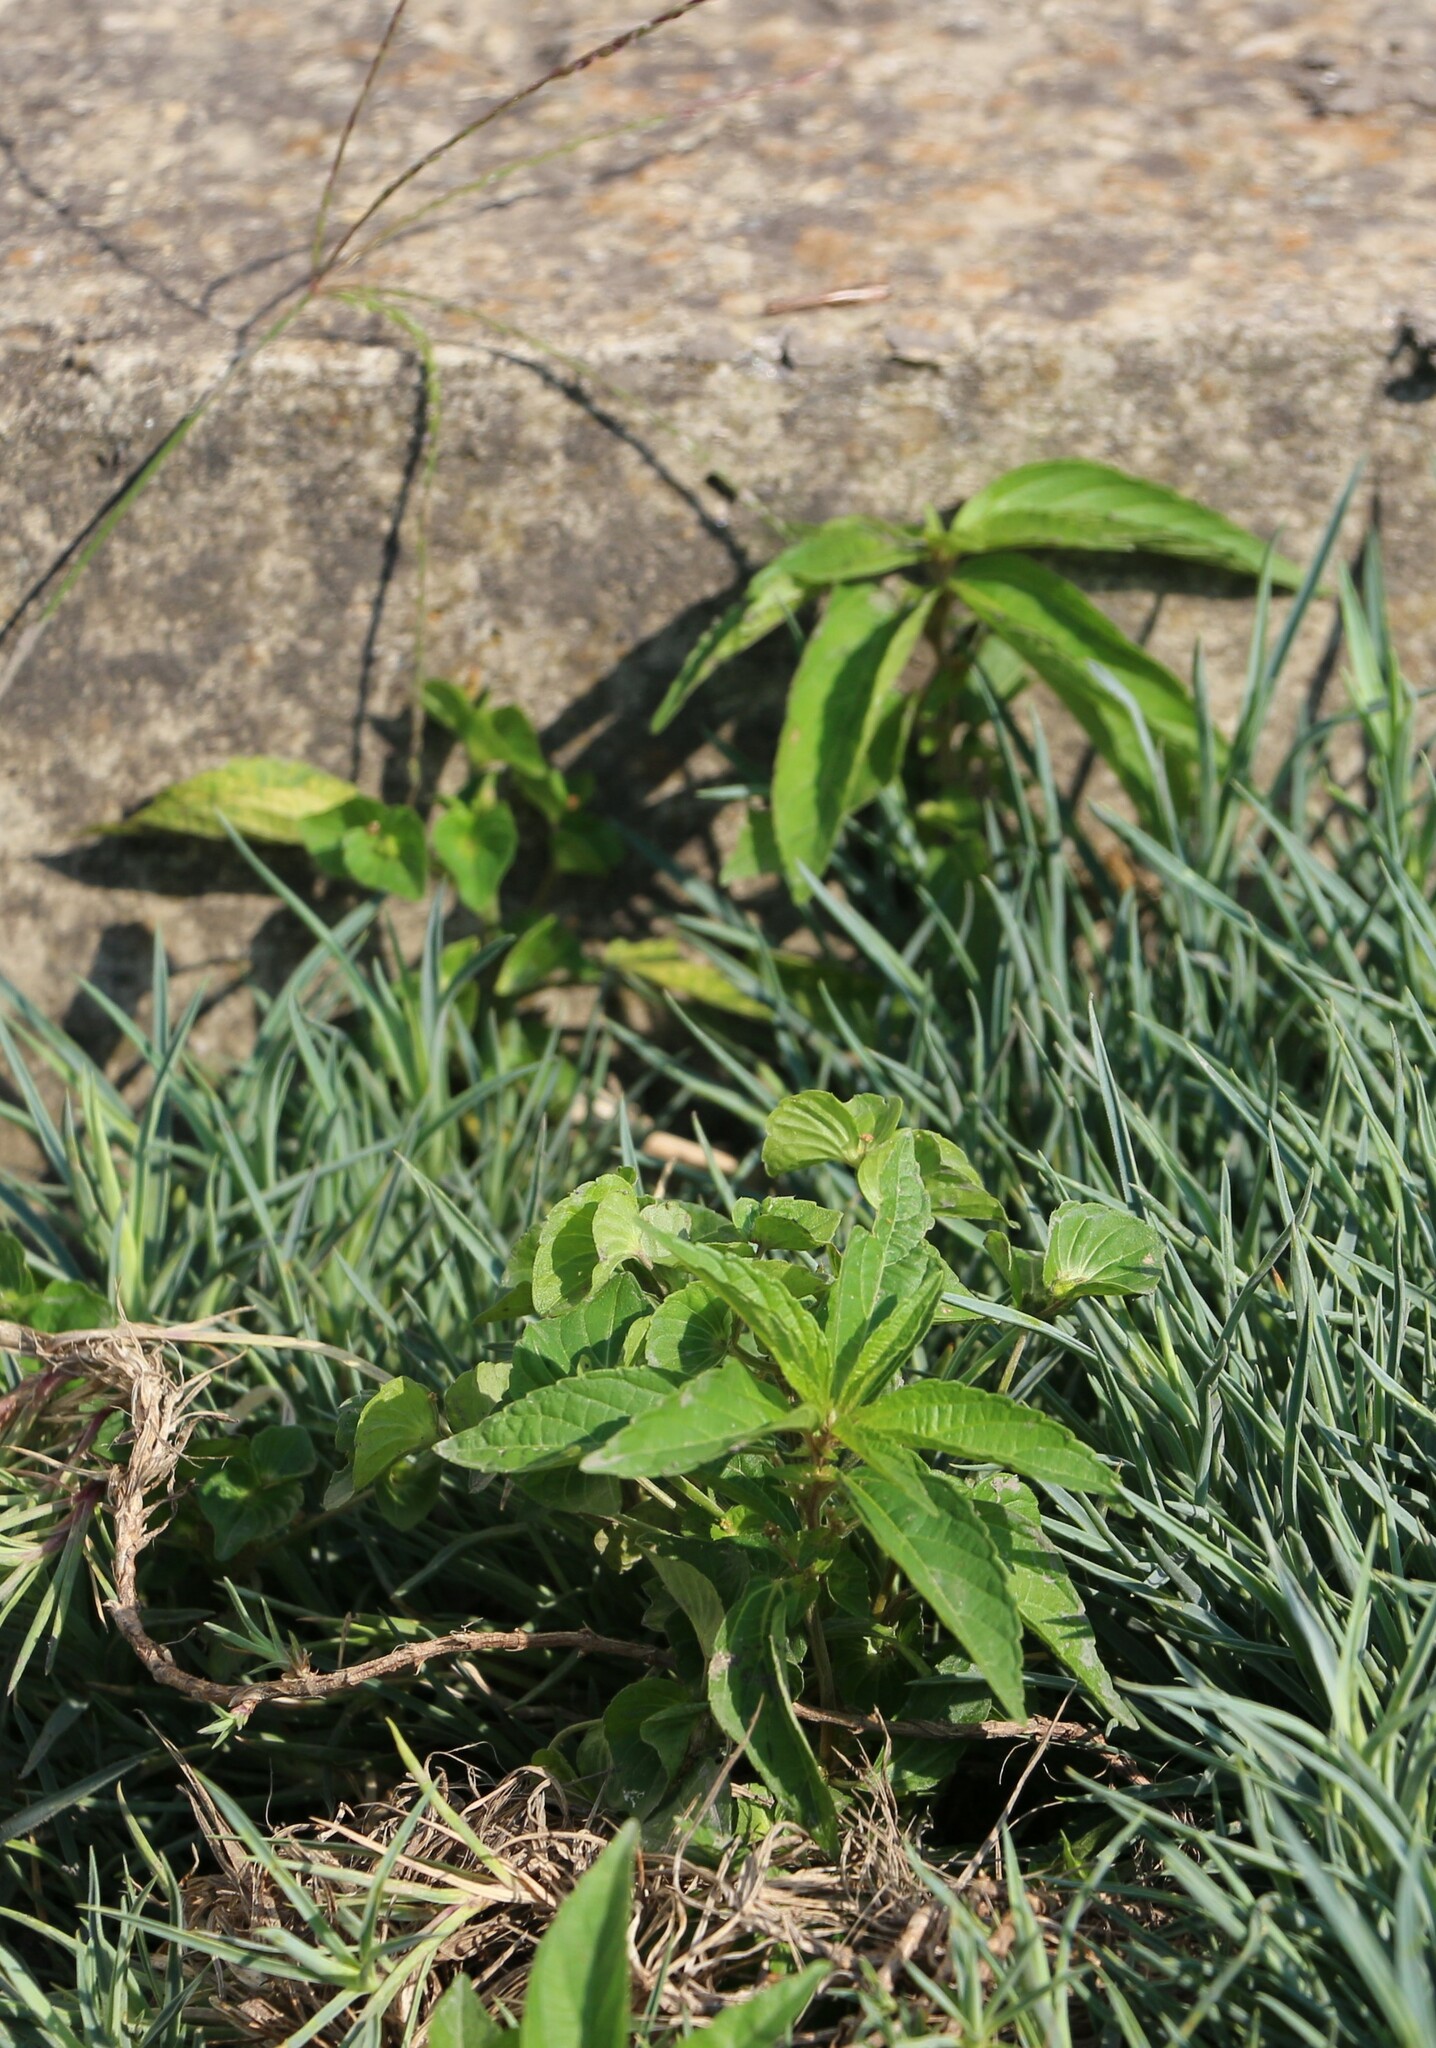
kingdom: Plantae
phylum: Tracheophyta
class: Magnoliopsida
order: Malpighiales
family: Euphorbiaceae
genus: Acalypha
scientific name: Acalypha australis
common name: Asian copperleaf
